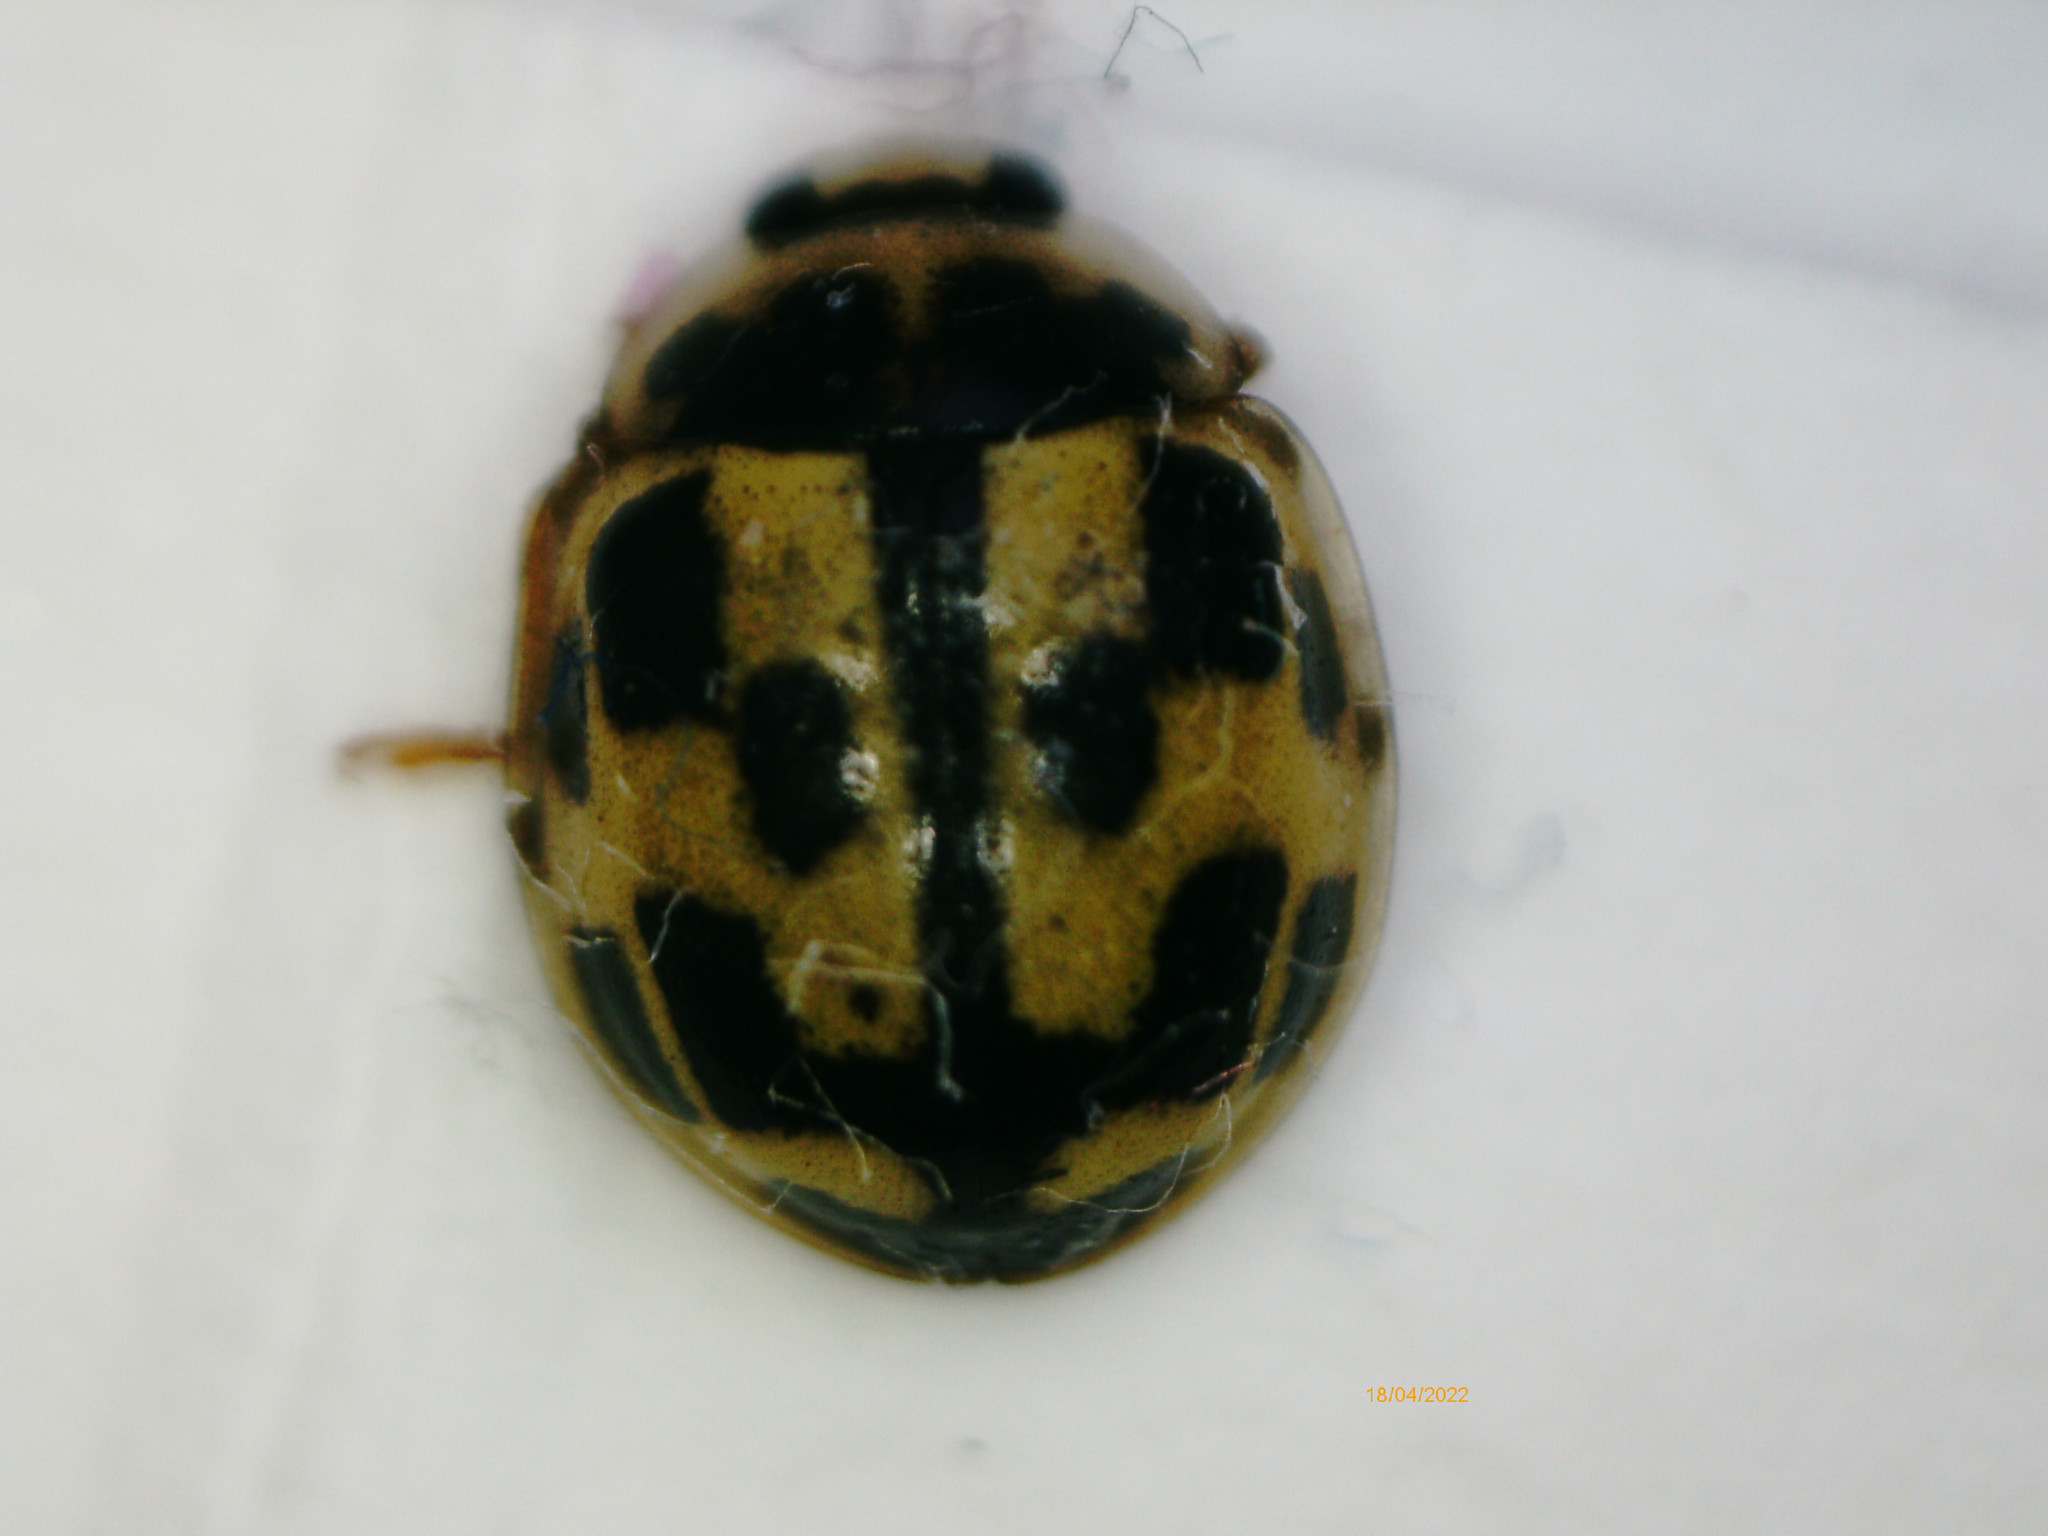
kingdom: Animalia
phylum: Arthropoda
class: Insecta
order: Coleoptera
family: Coccinellidae
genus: Propylaea
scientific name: Propylaea quatuordecimpunctata
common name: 14-spotted ladybird beetle
